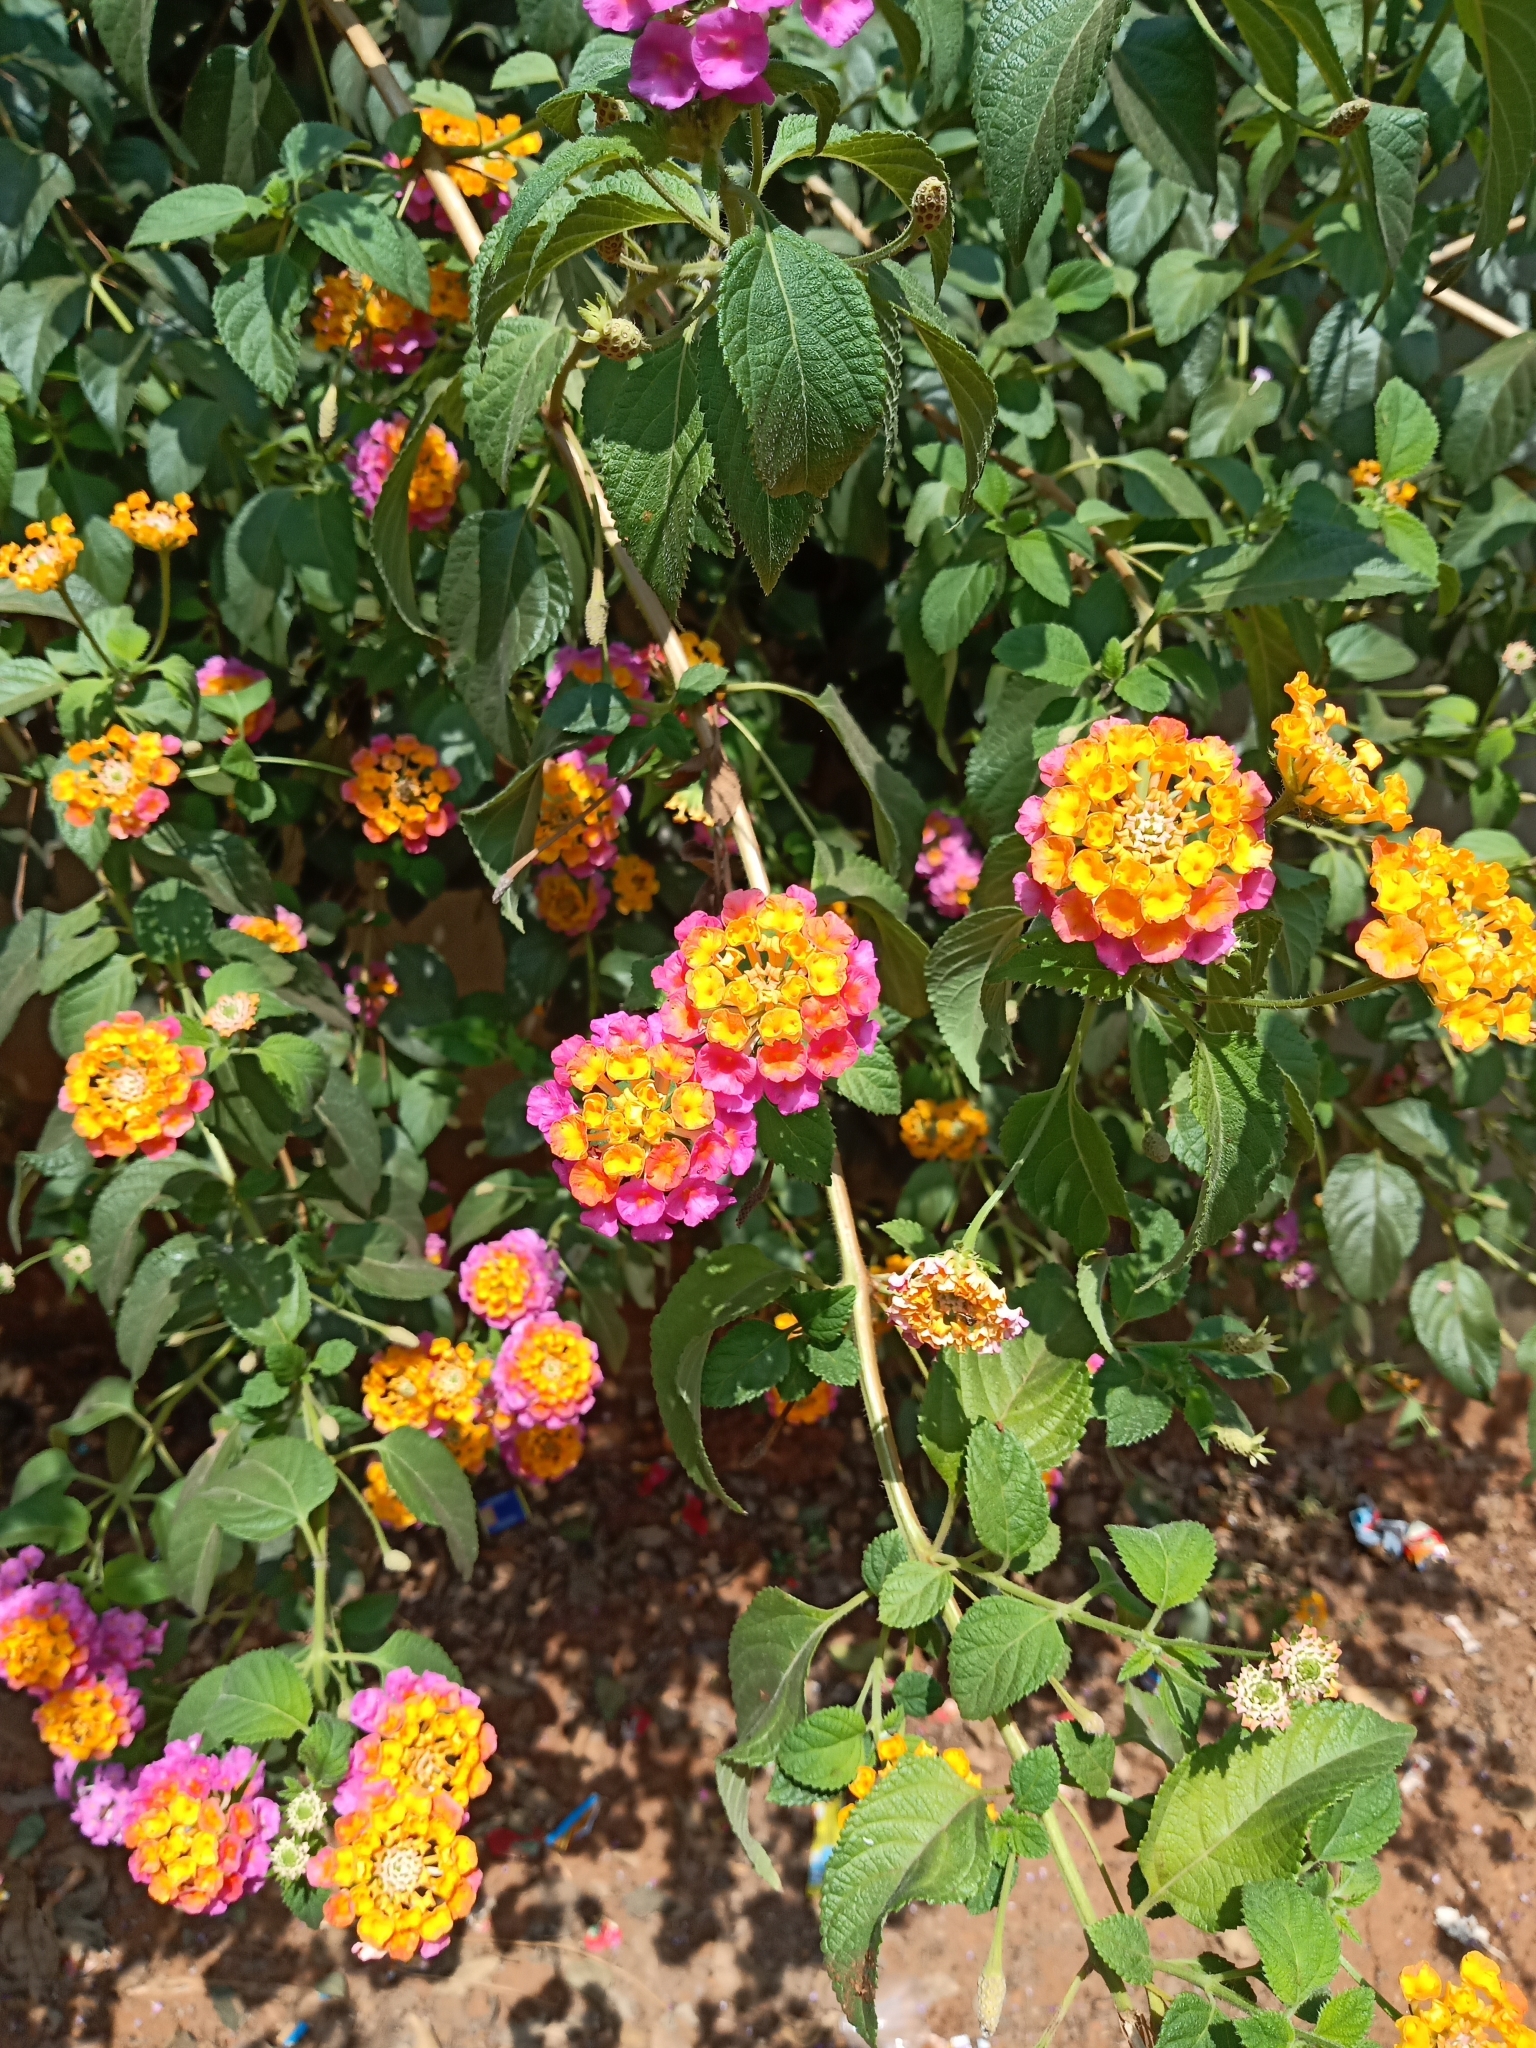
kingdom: Plantae
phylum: Tracheophyta
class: Magnoliopsida
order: Lamiales
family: Verbenaceae
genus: Lantana
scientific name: Lantana camara
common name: Lantana
